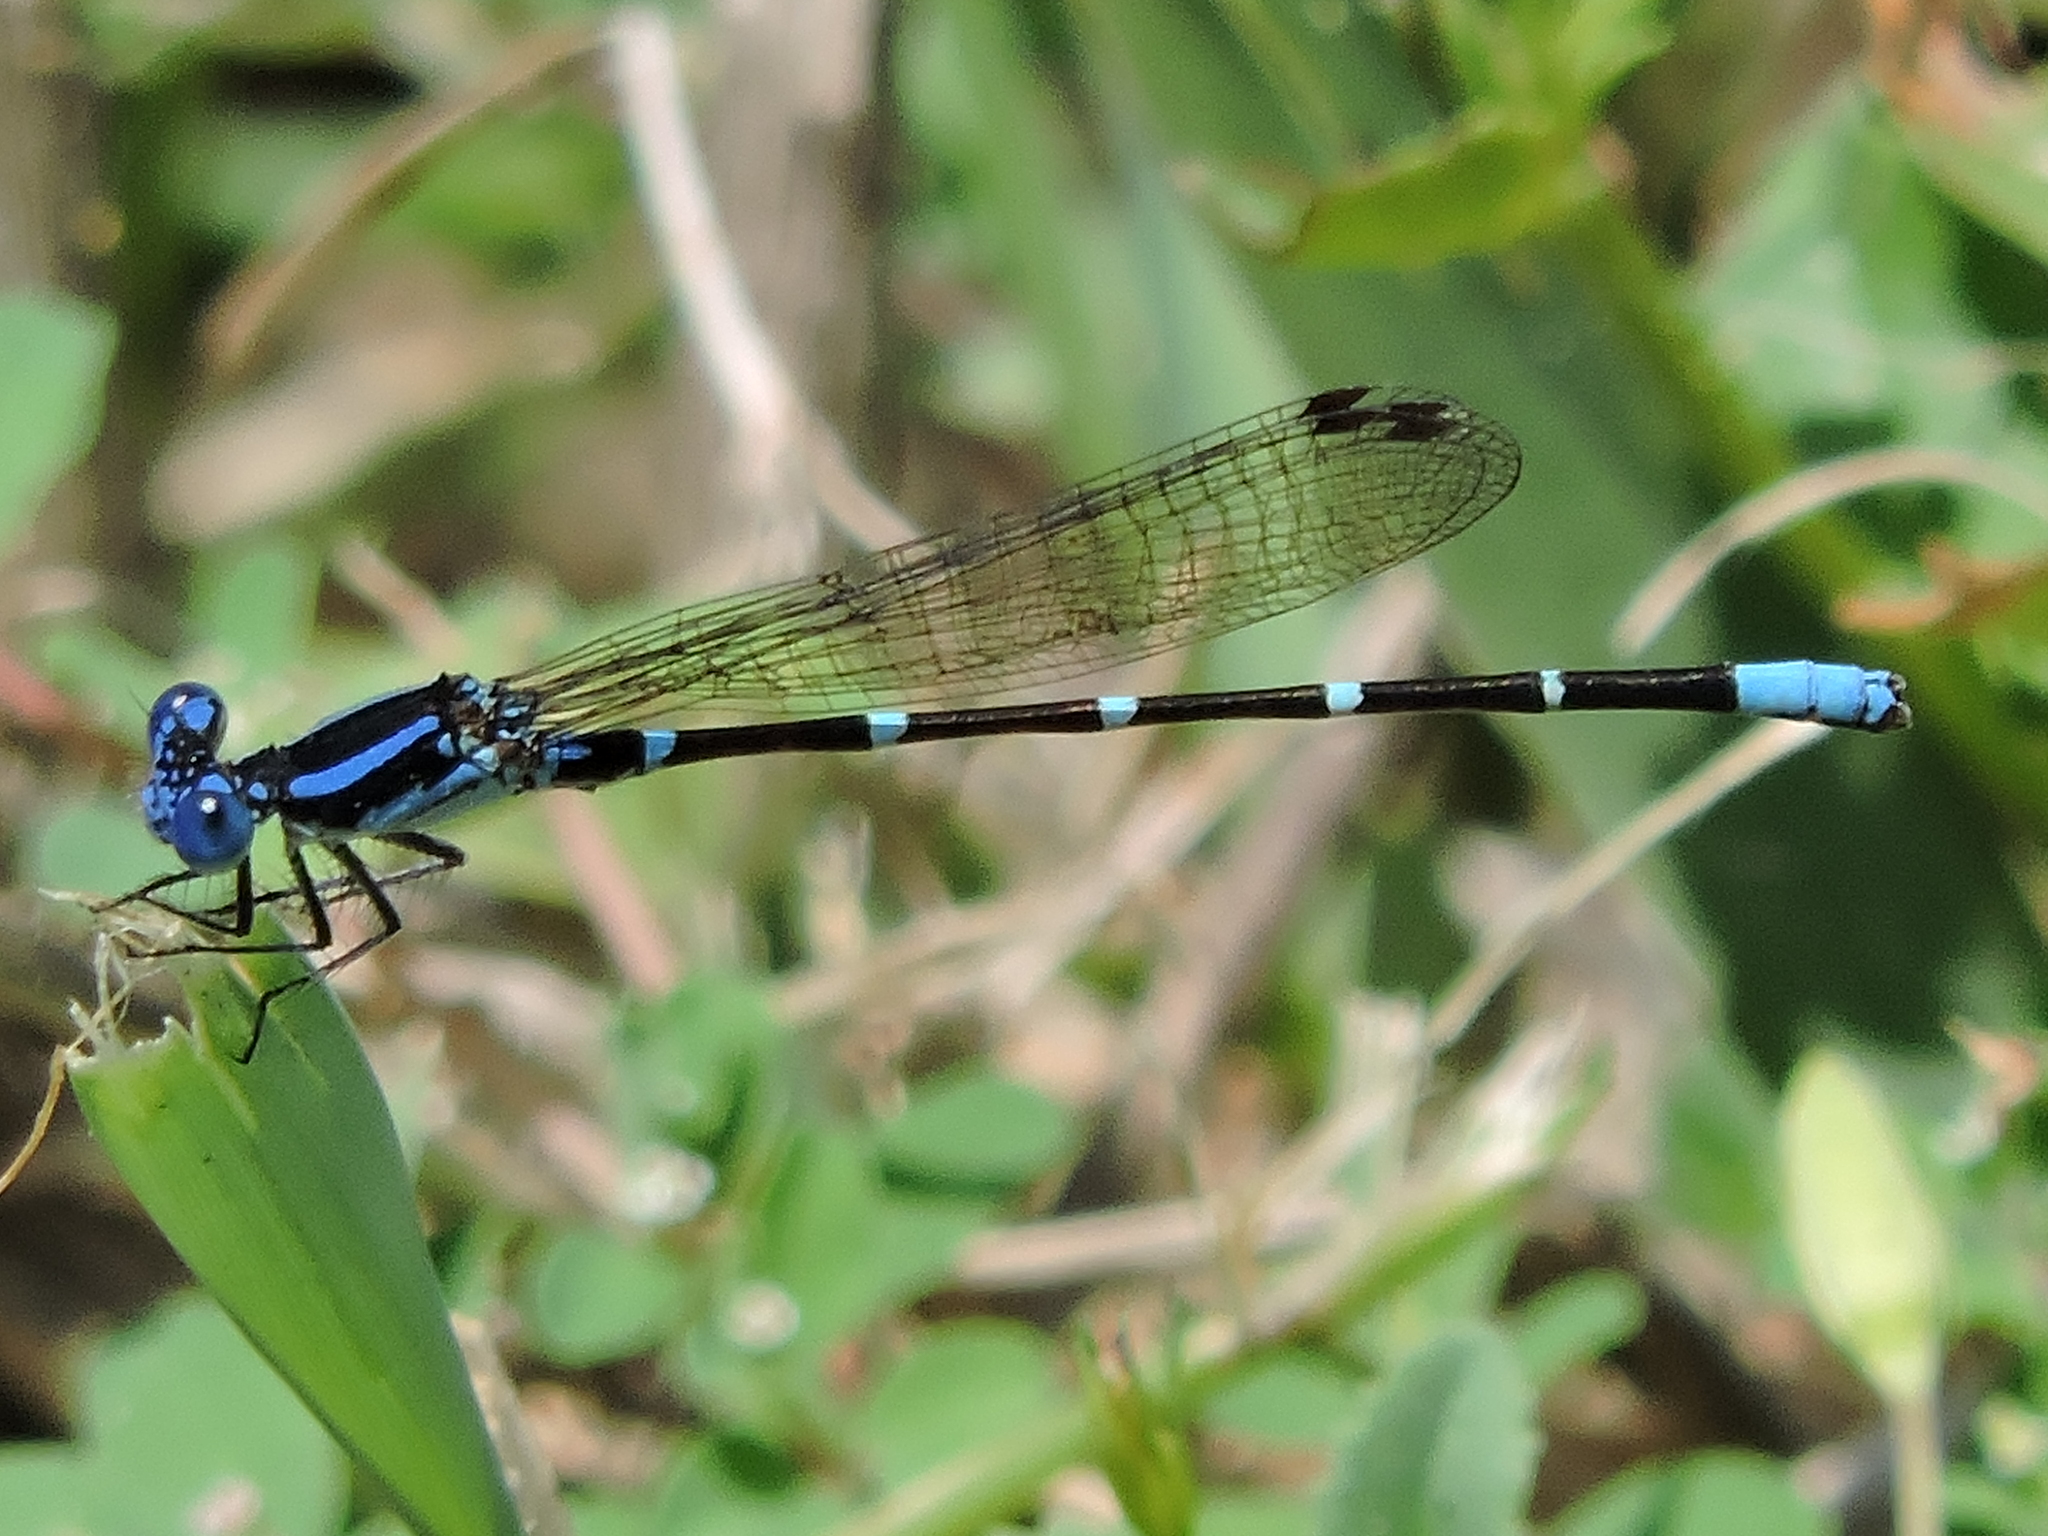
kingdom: Animalia
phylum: Arthropoda
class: Insecta
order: Odonata
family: Coenagrionidae
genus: Argia
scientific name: Argia sedula
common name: Blue-ringed dancer
